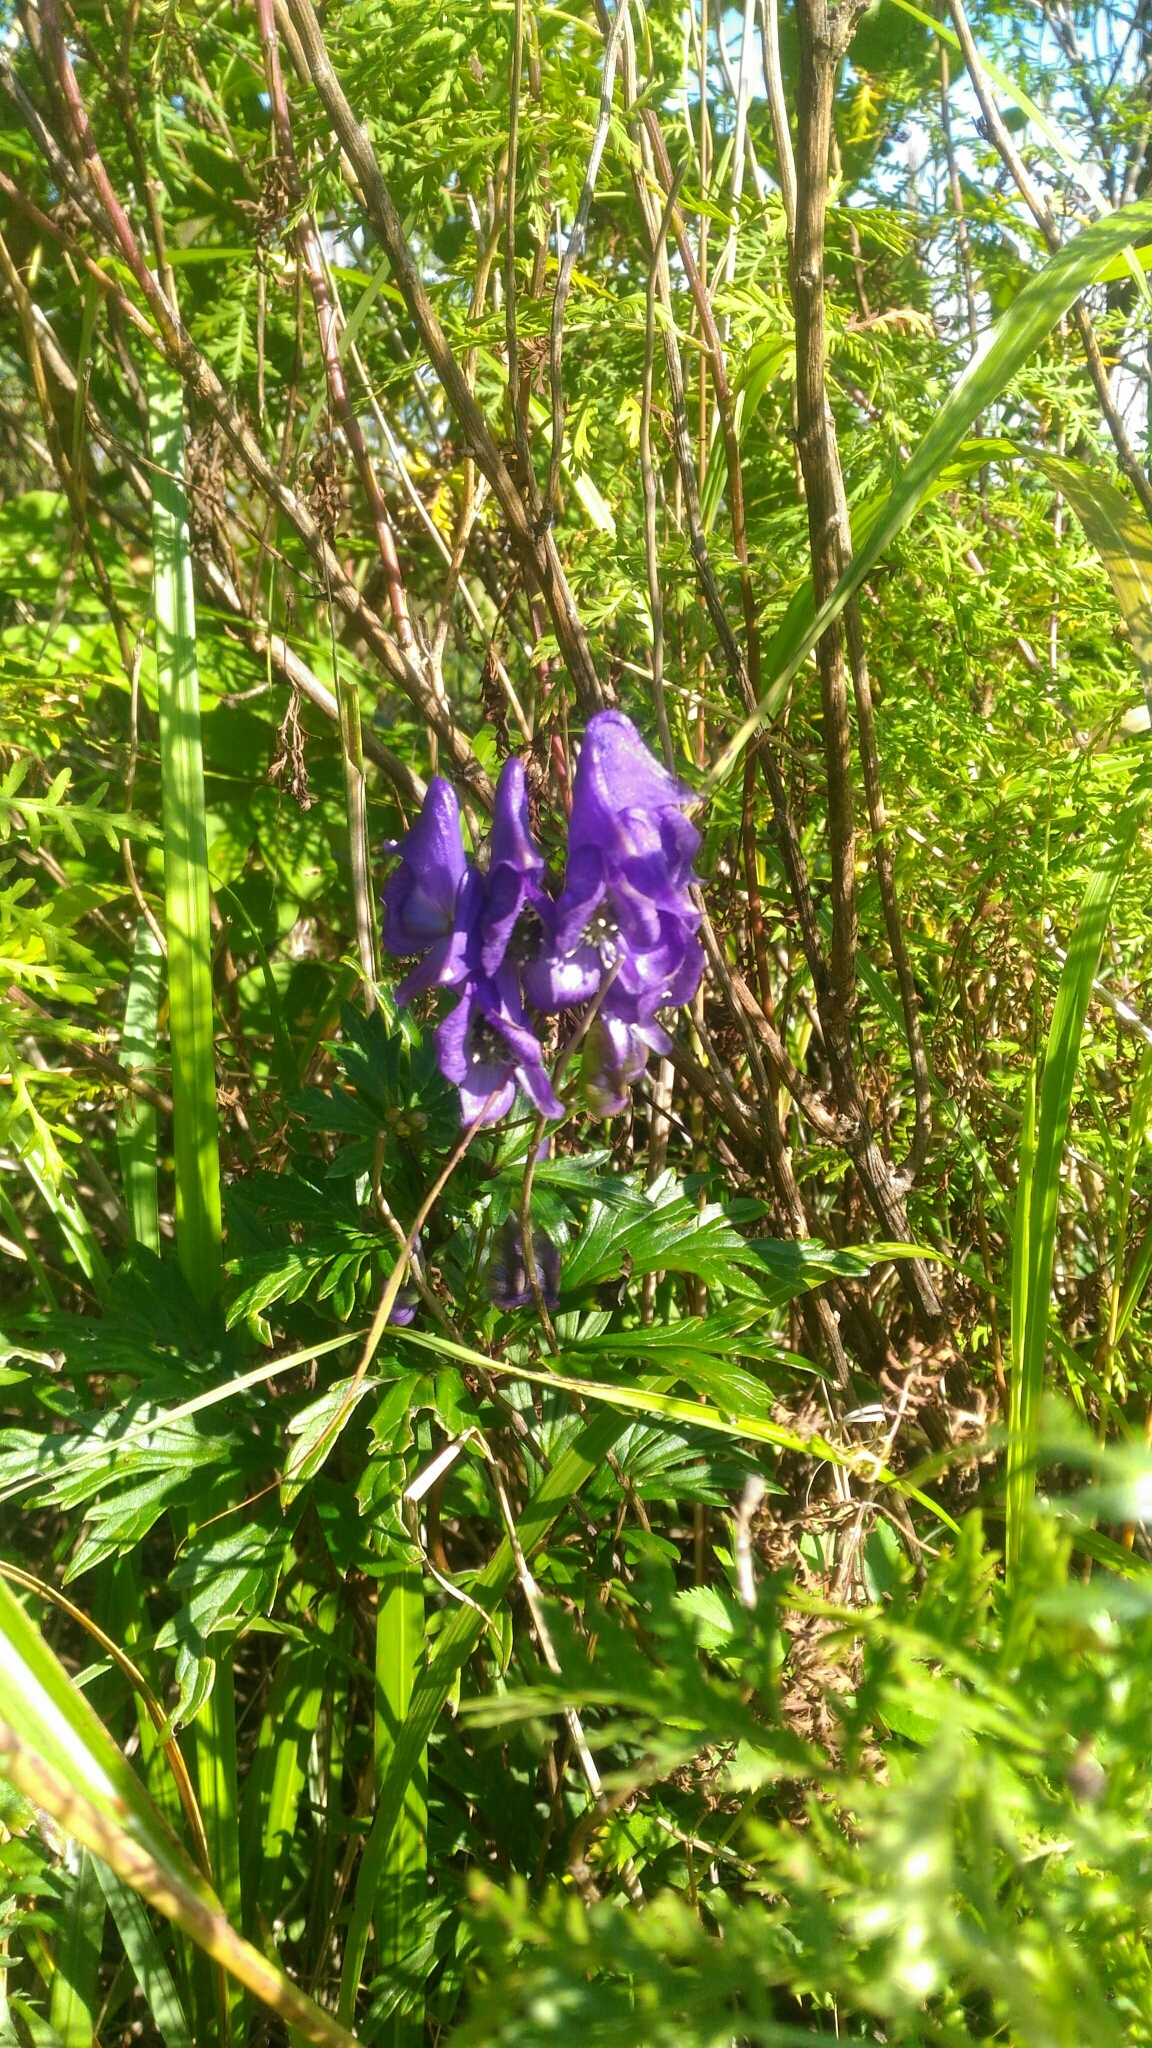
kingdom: Plantae
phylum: Tracheophyta
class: Magnoliopsida
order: Ranunculales
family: Ranunculaceae
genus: Aconitum
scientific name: Aconitum volubile
